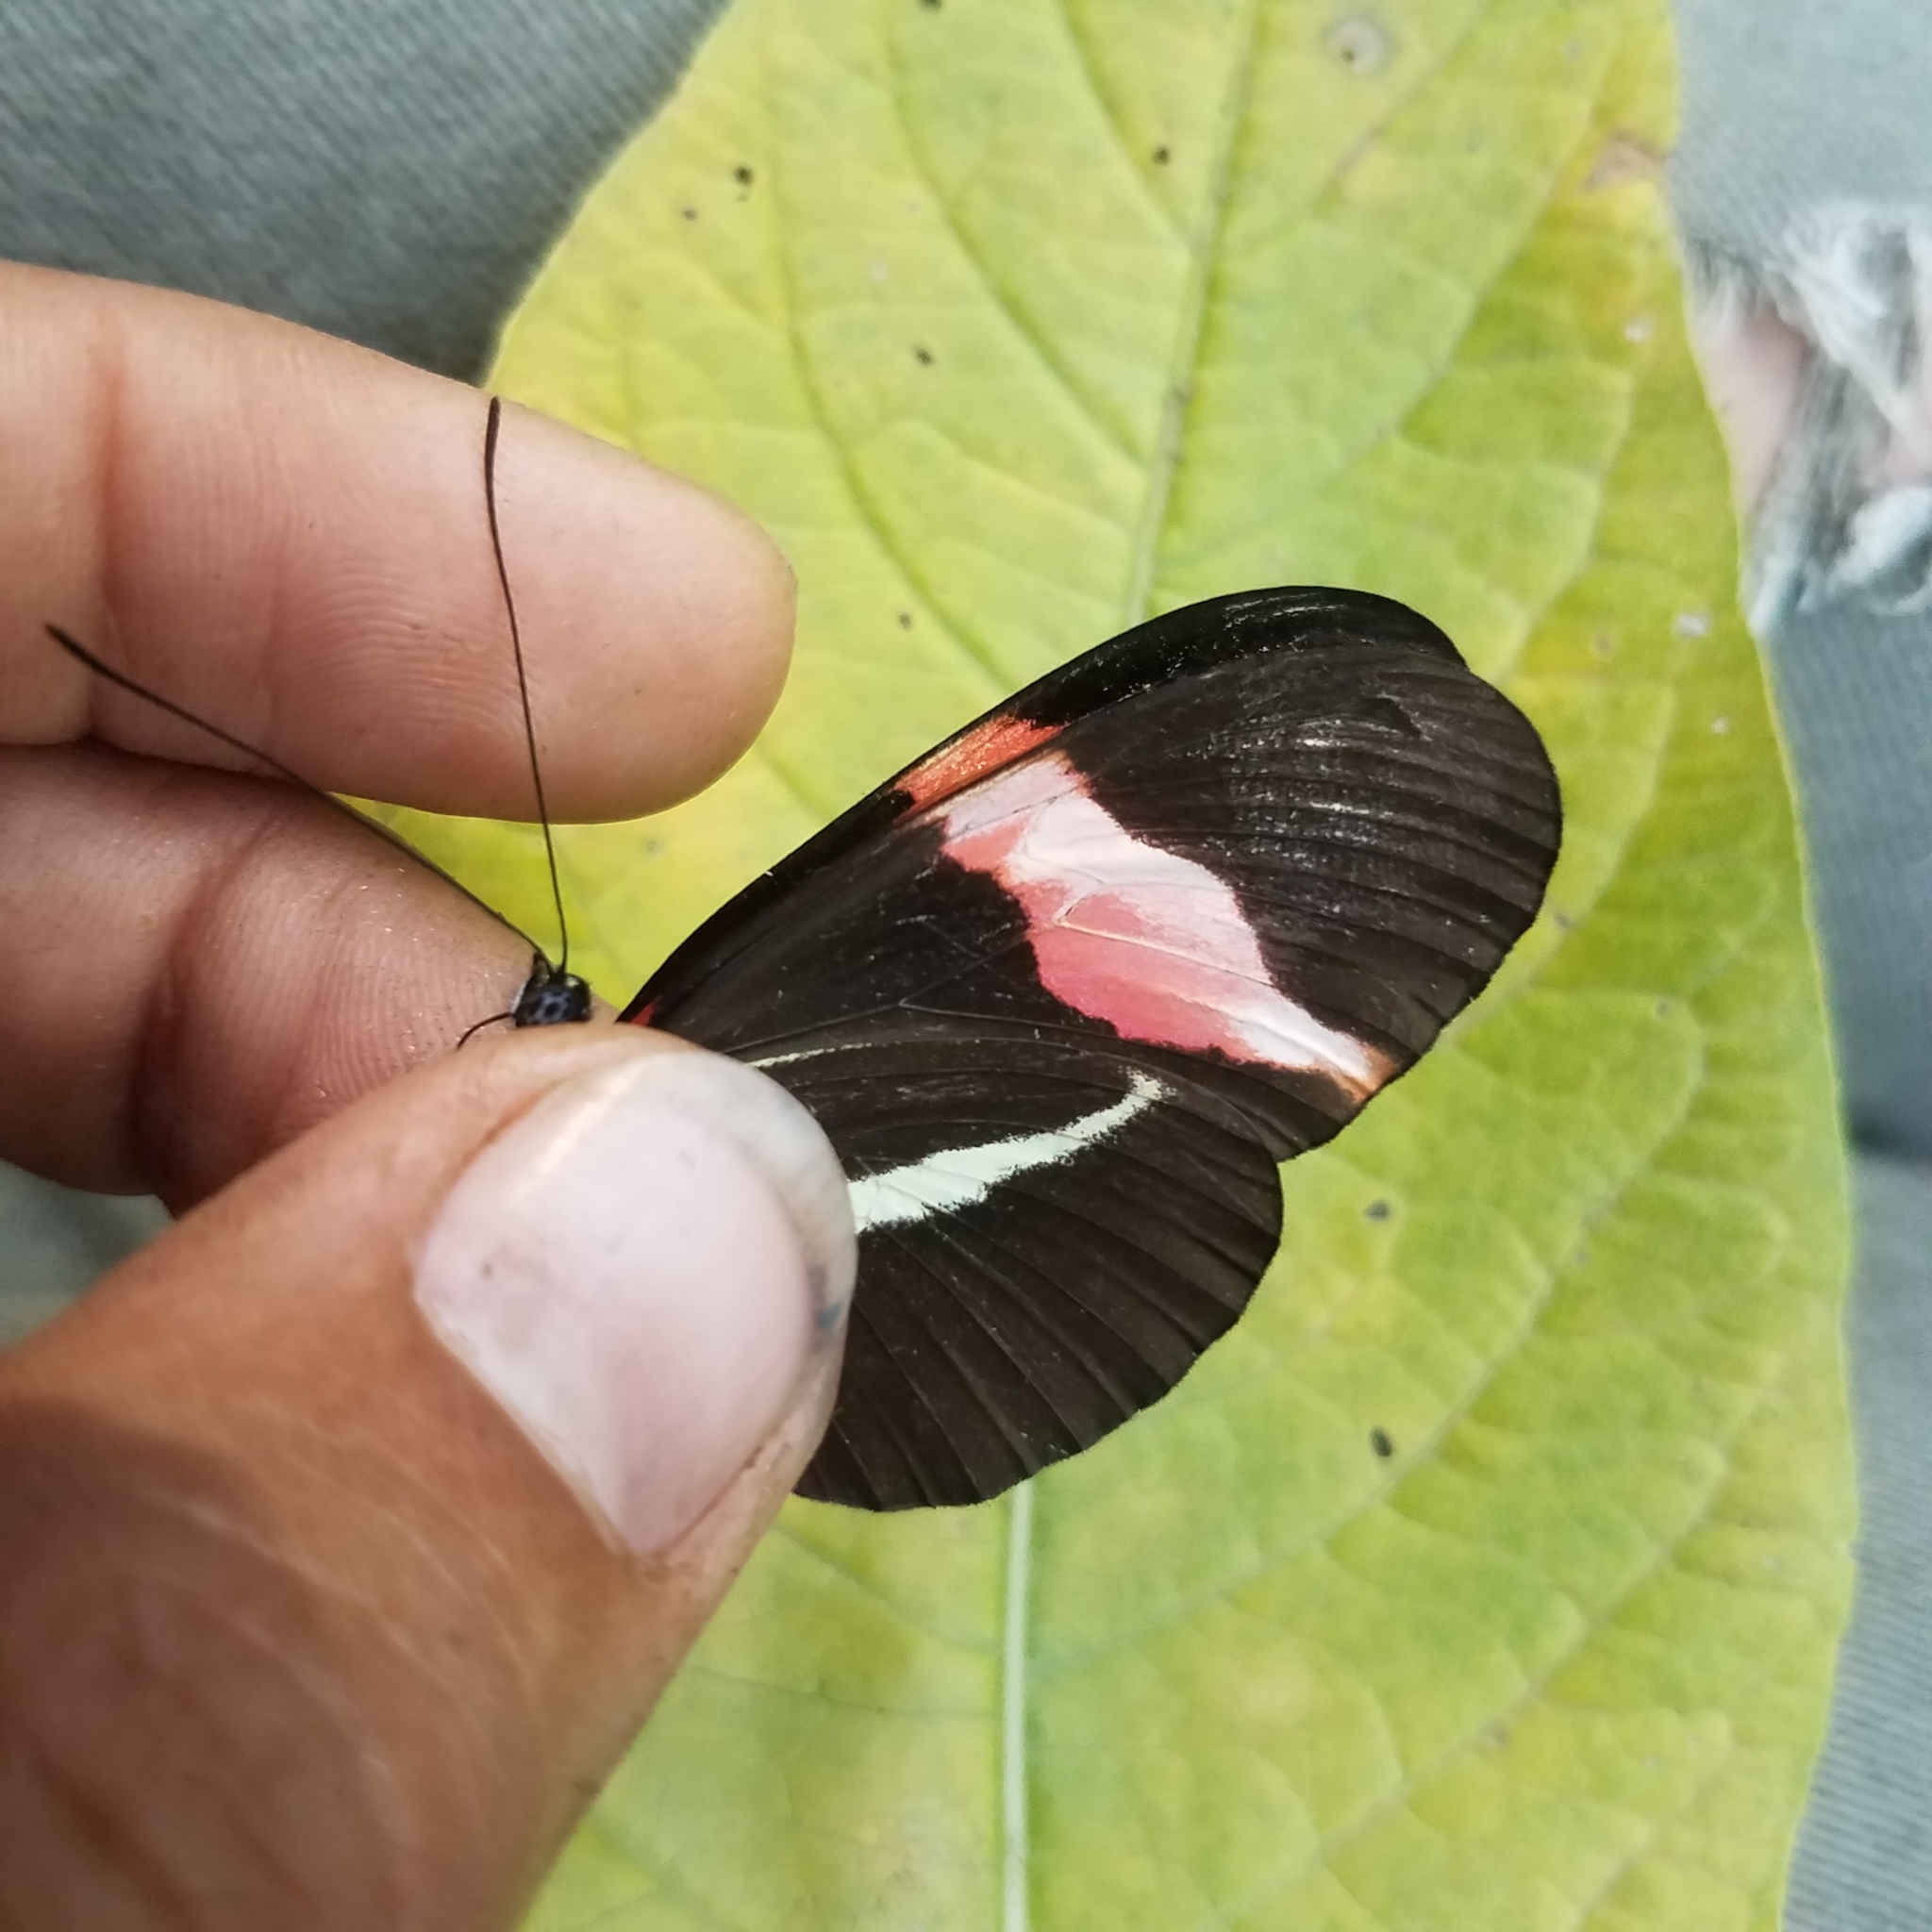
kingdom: Animalia
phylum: Arthropoda
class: Insecta
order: Lepidoptera
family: Nymphalidae
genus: Tirumala
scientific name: Tirumala petiverana
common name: Blue monarch
